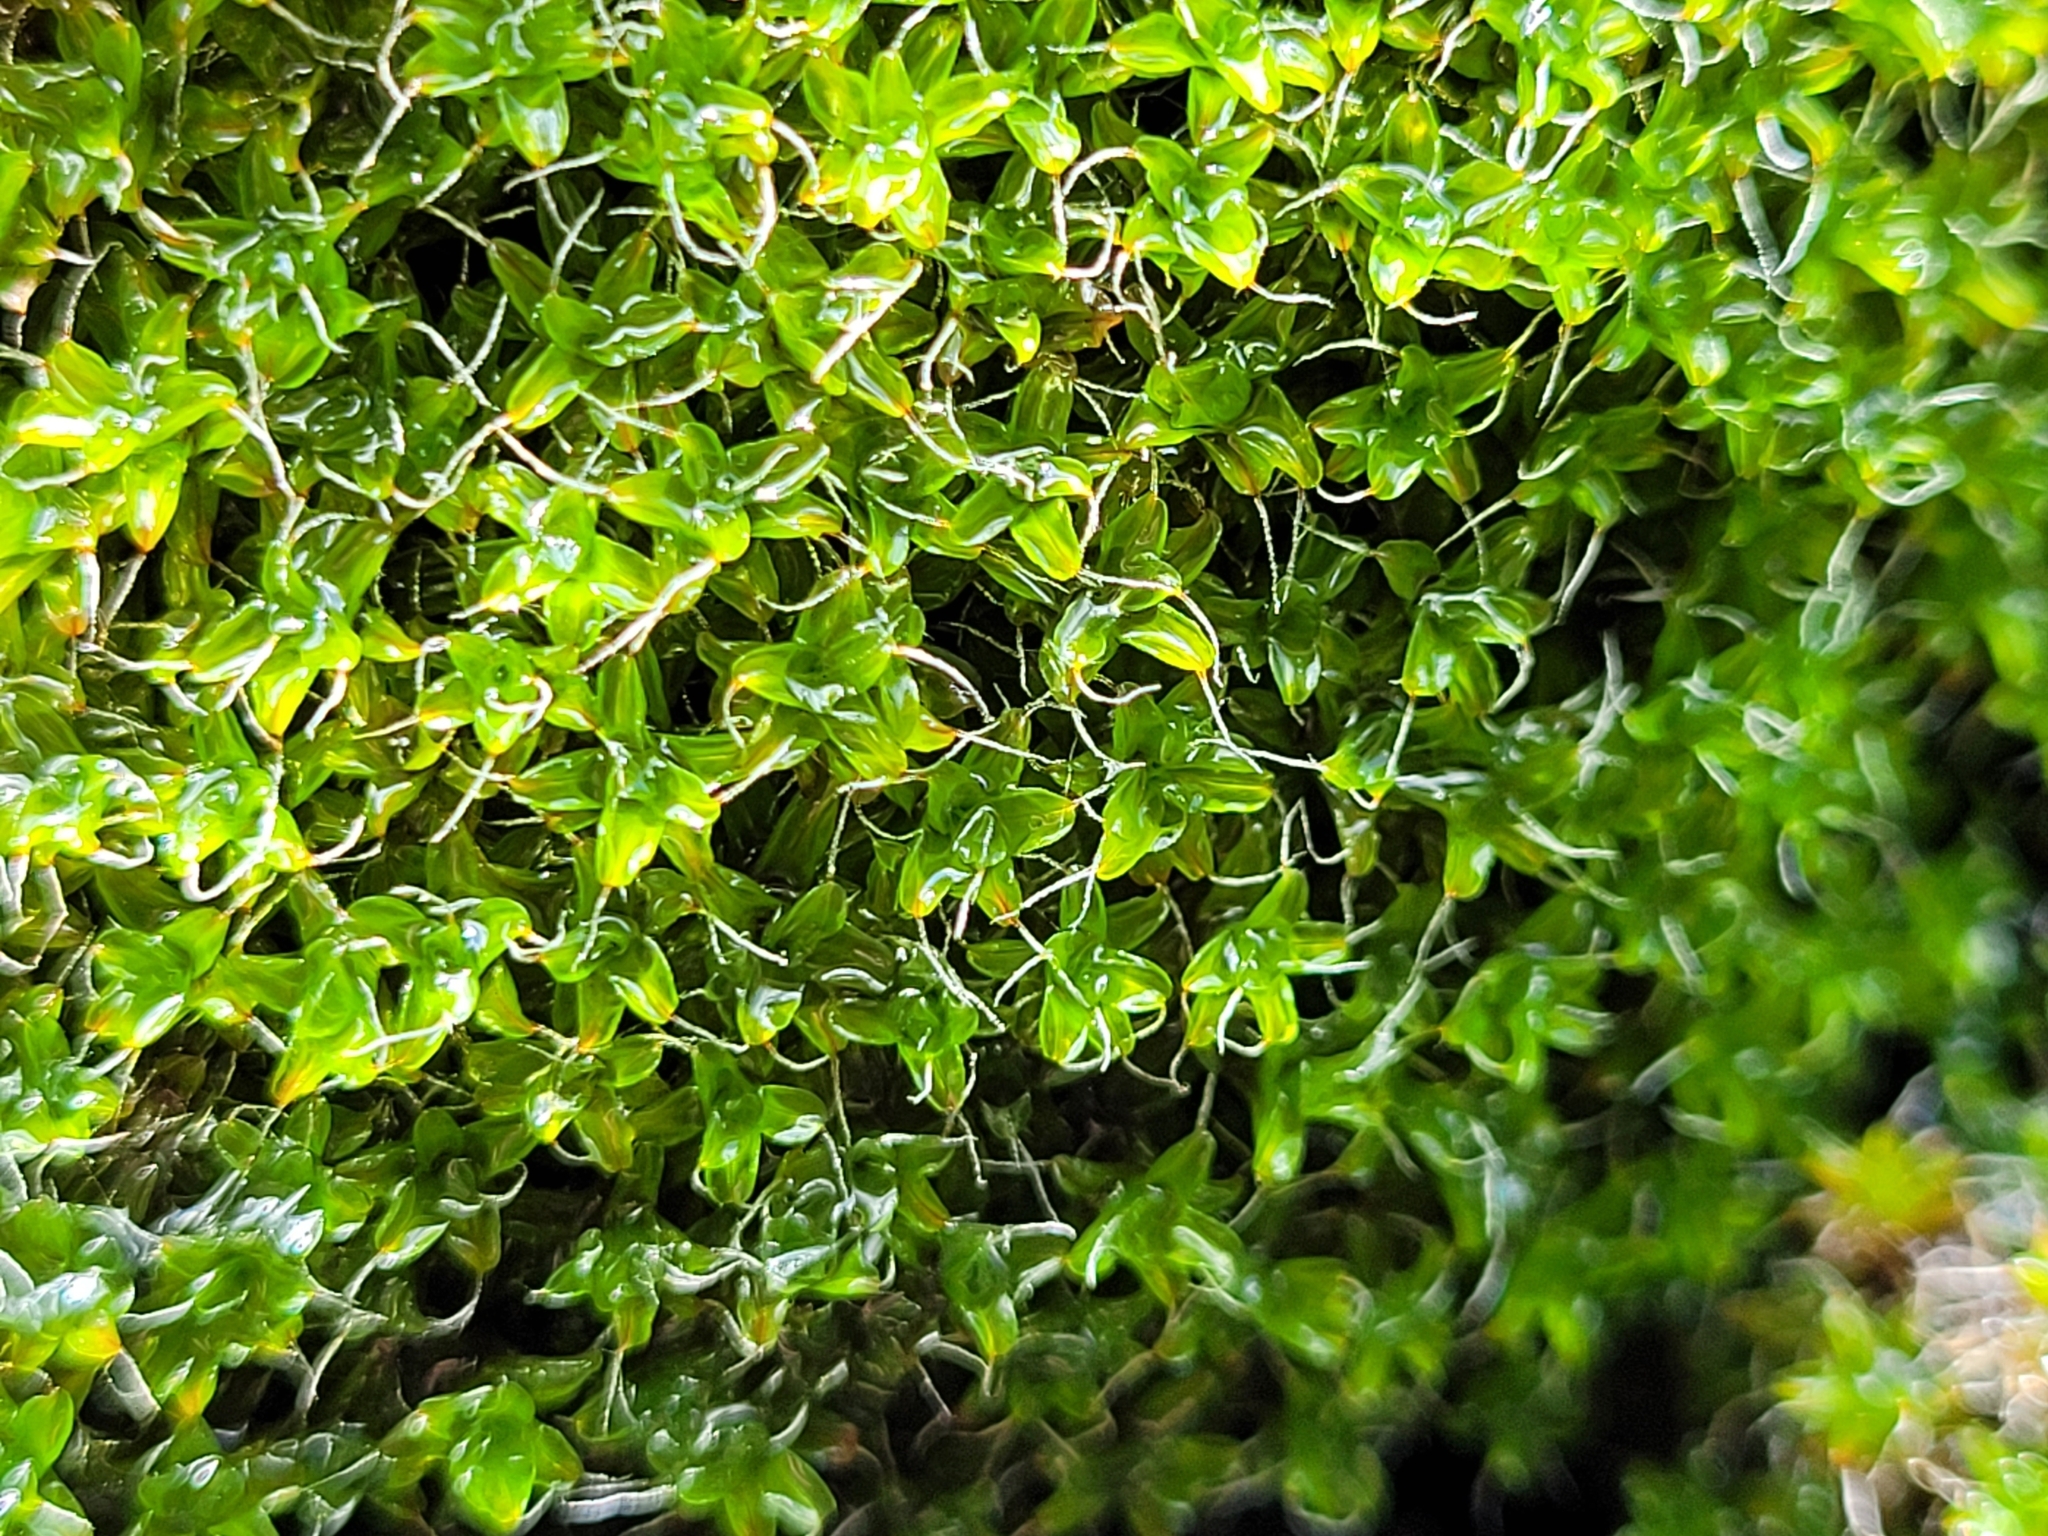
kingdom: Plantae
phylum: Bryophyta
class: Bryopsida
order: Pottiales
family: Pottiaceae
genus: Syntrichia
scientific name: Syntrichia ruralis
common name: Sidewalk screw moss
